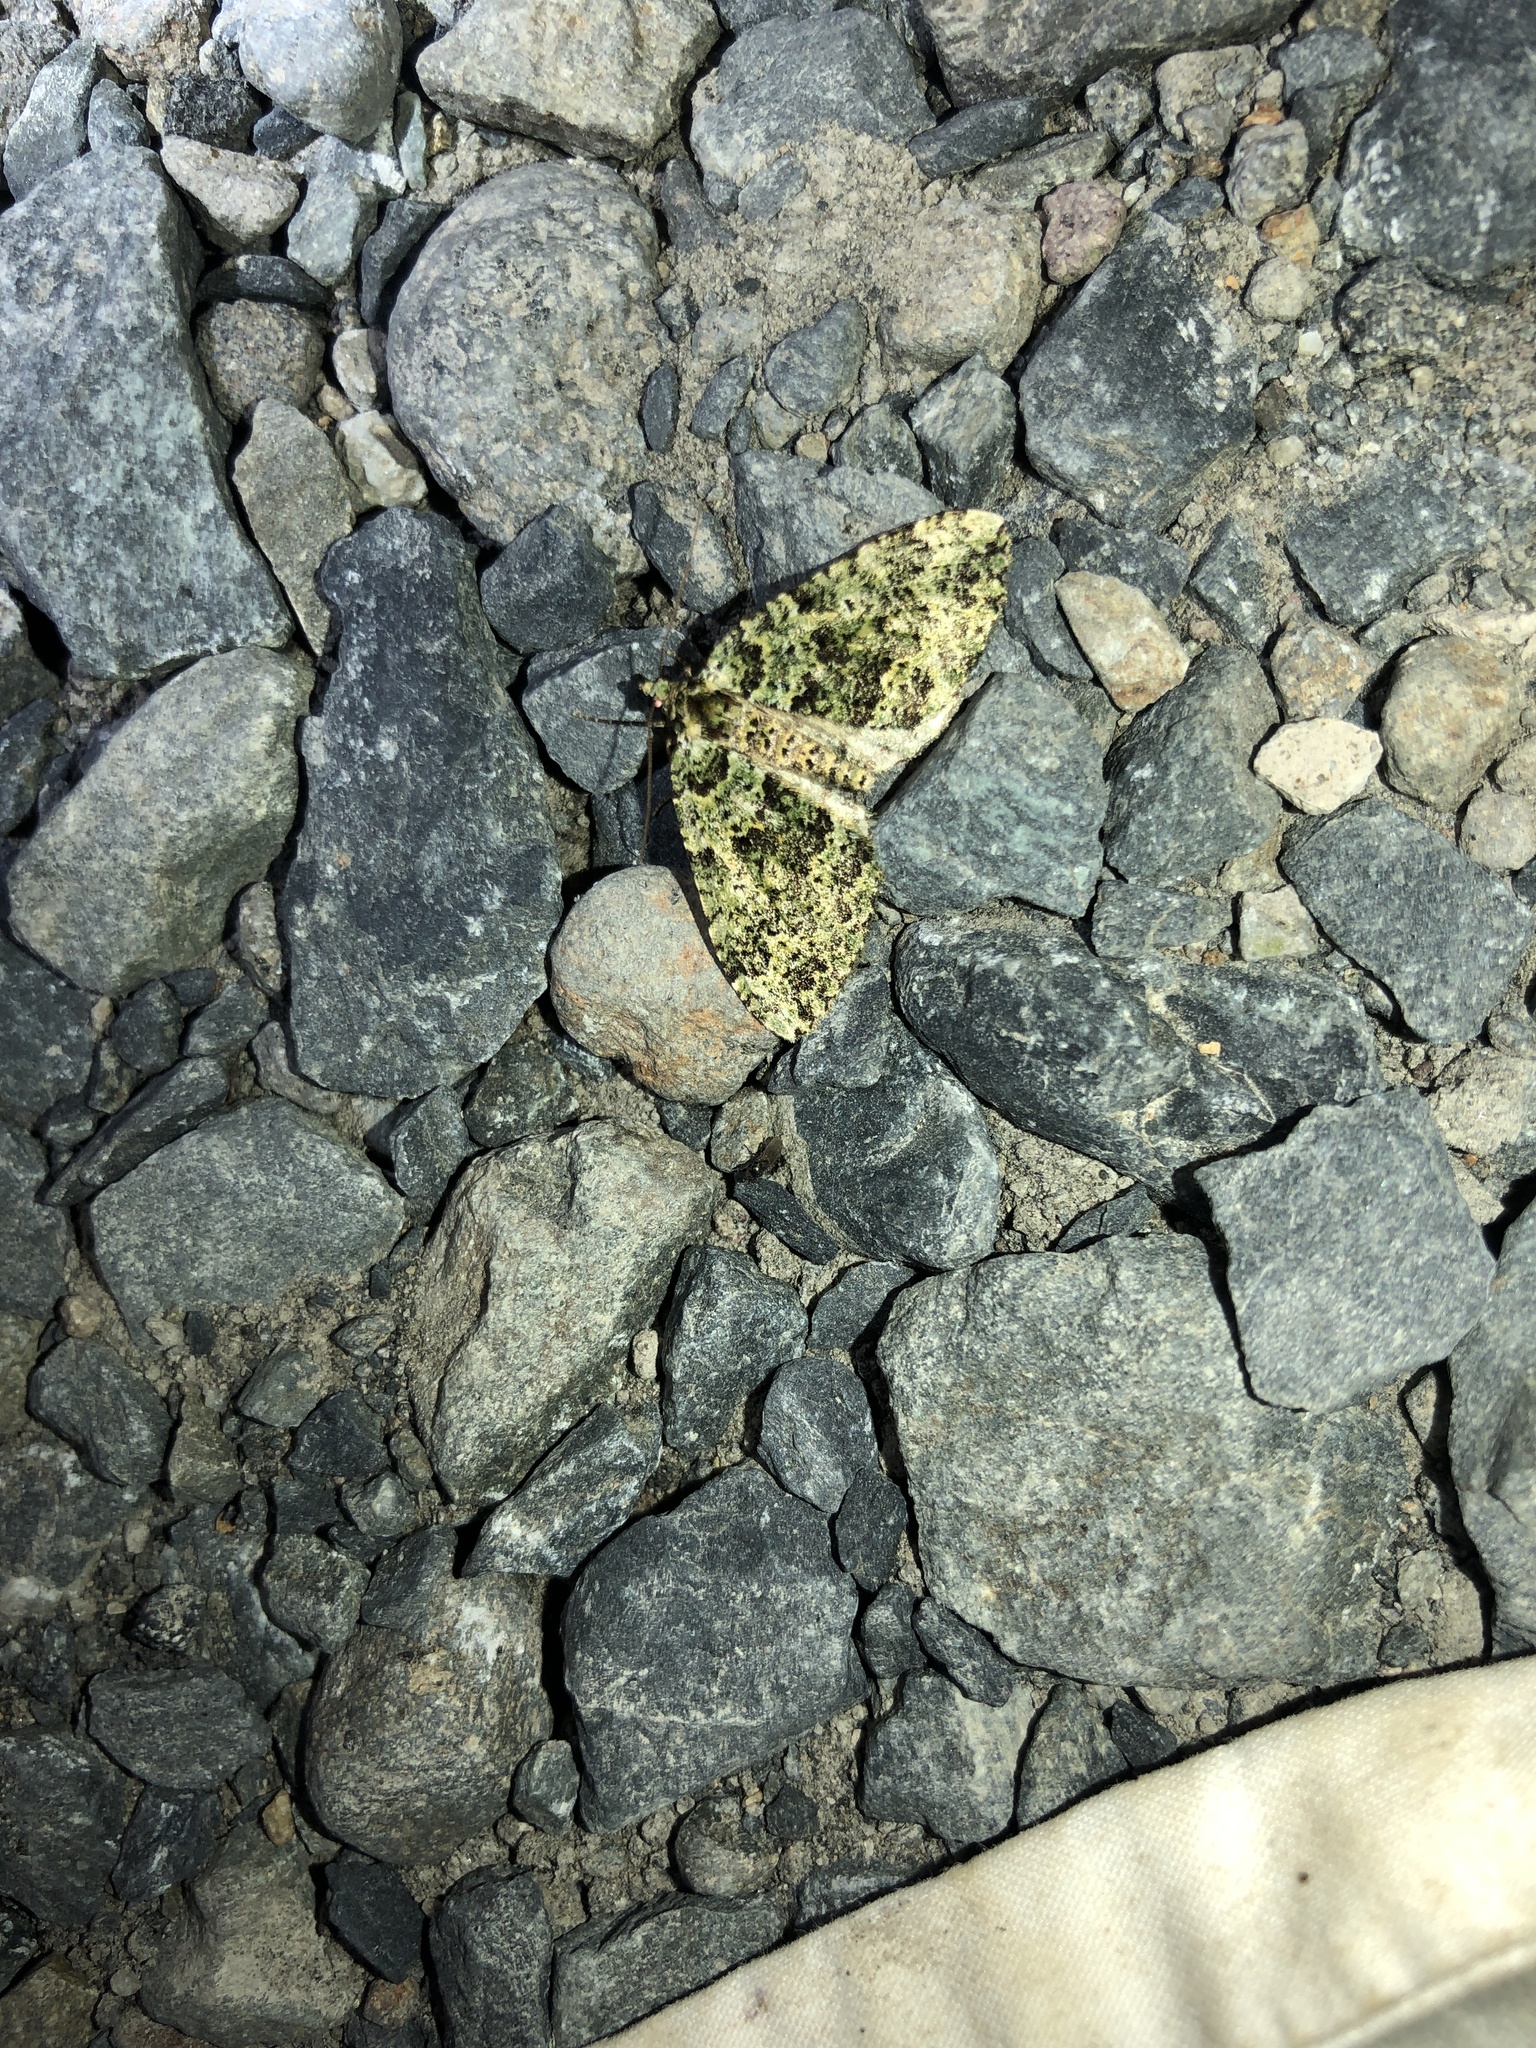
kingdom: Animalia
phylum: Arthropoda
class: Insecta
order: Lepidoptera
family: Geometridae
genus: Austrocidaria
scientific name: Austrocidaria callichlora
